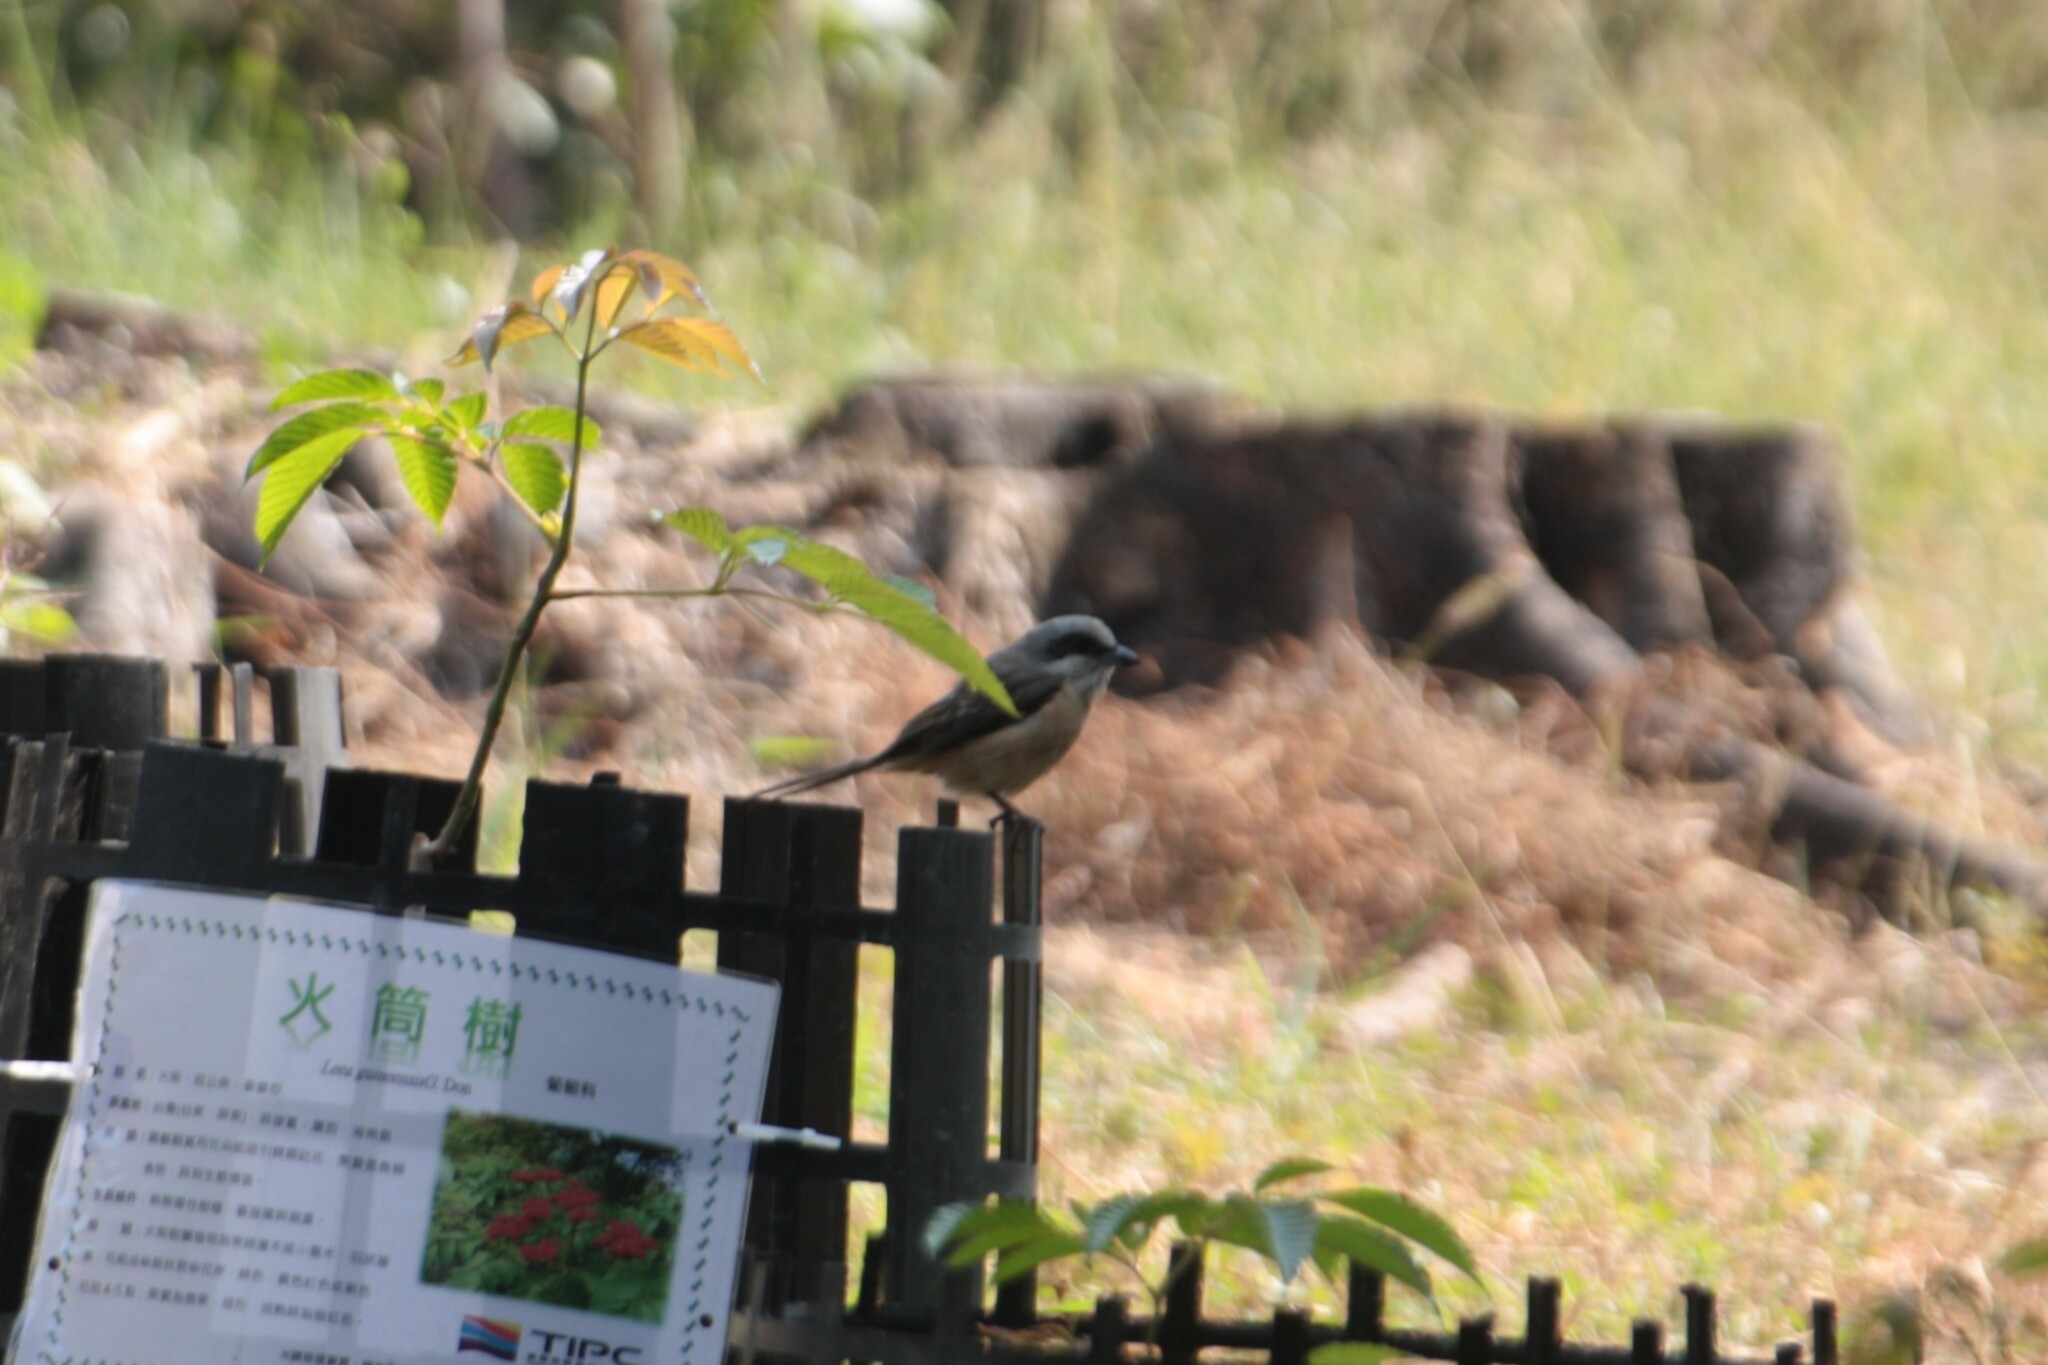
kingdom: Animalia
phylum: Chordata
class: Aves
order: Passeriformes
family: Laniidae
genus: Lanius
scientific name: Lanius cristatus
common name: Brown shrike
